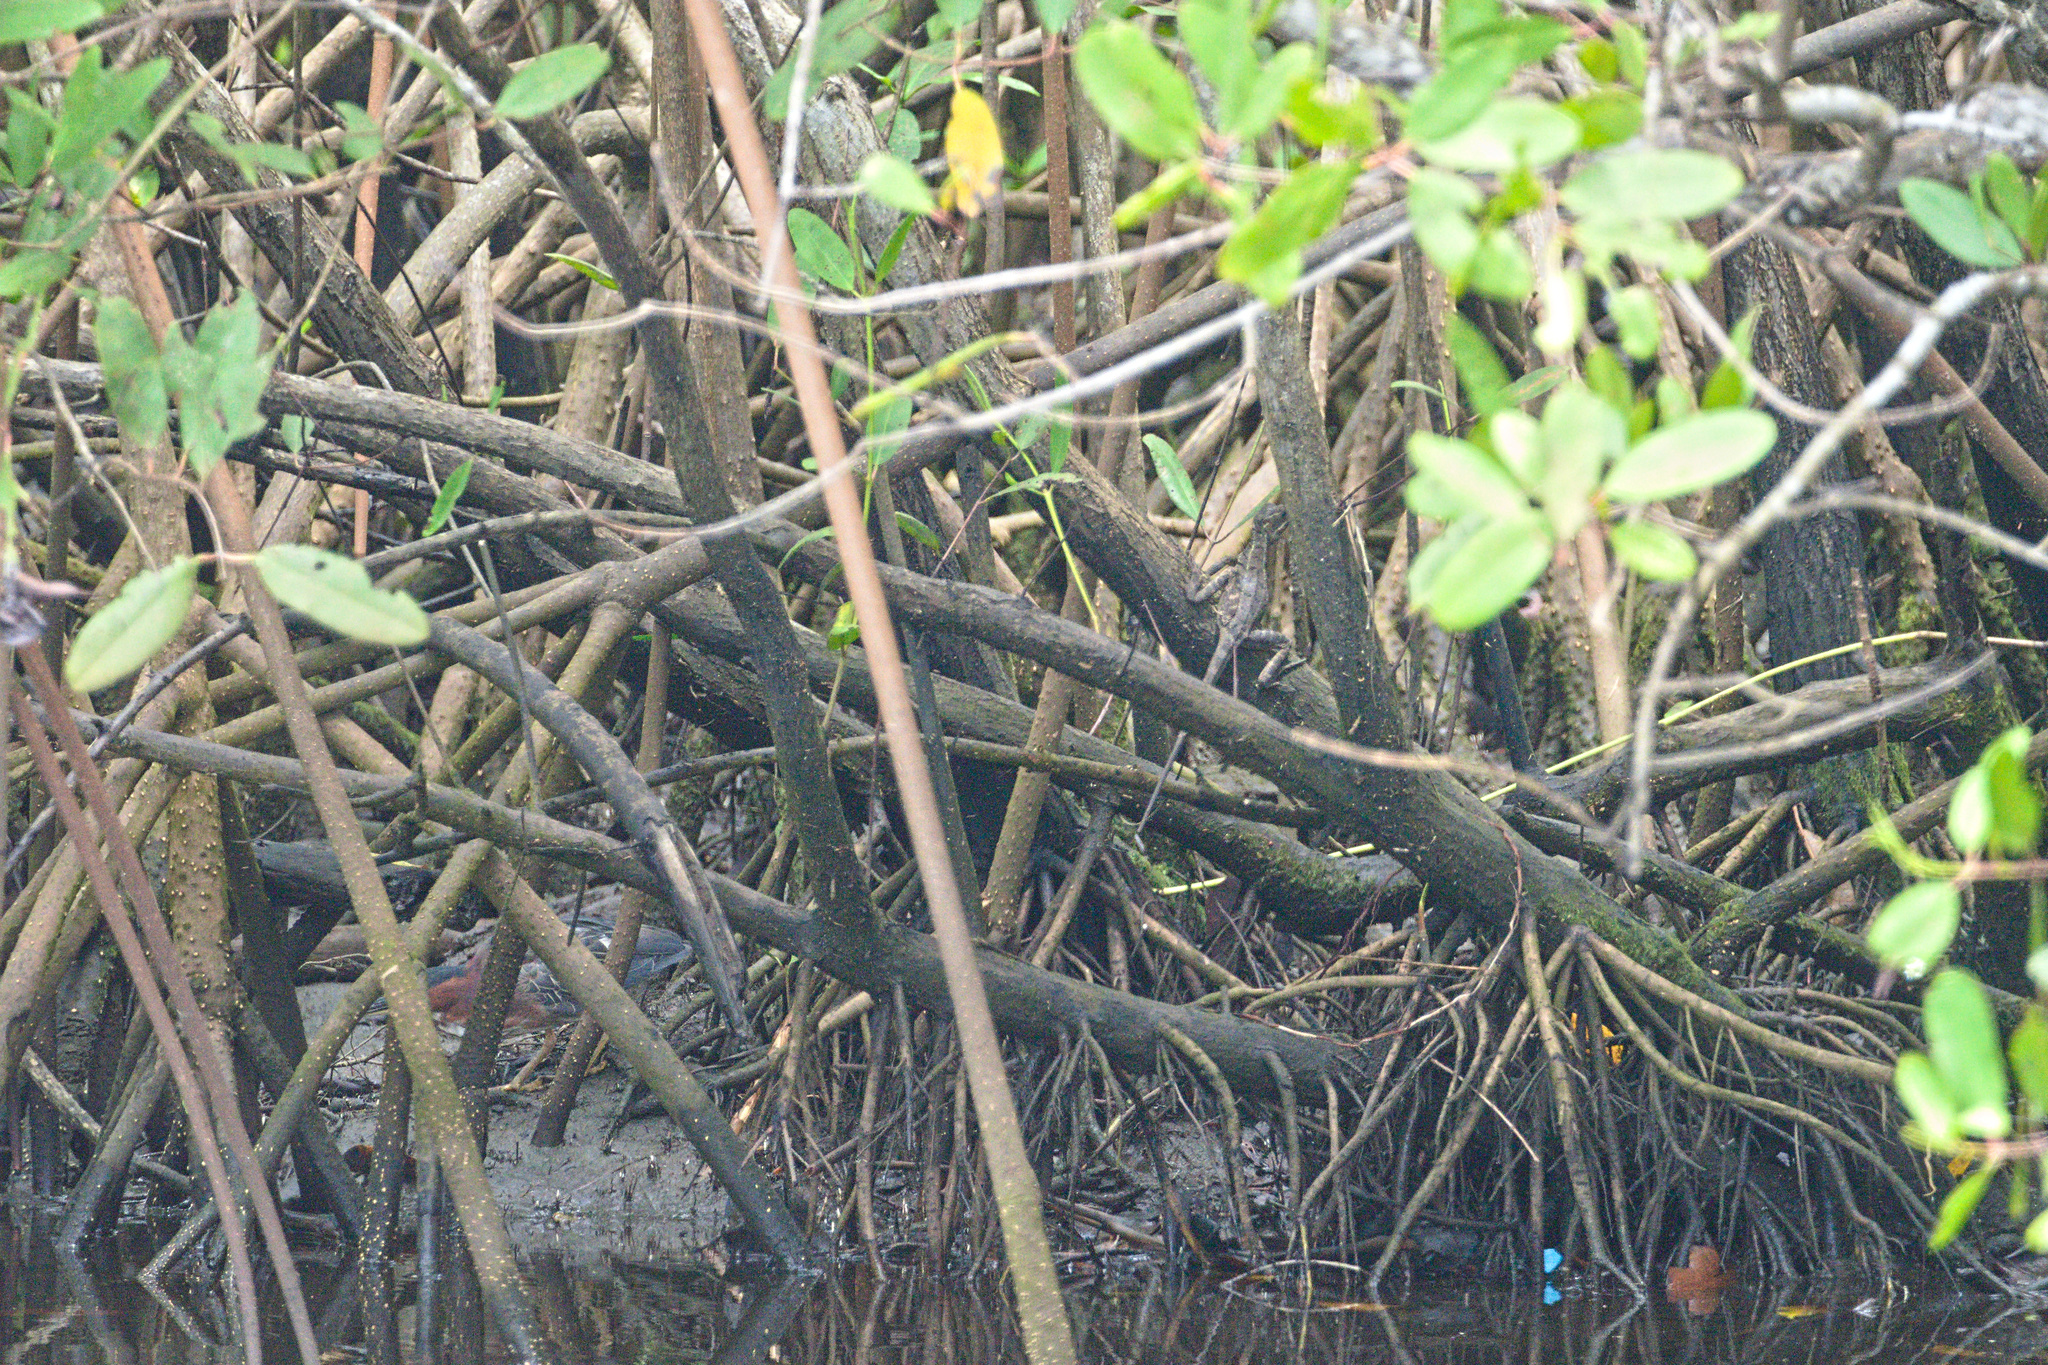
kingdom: Animalia
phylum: Chordata
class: Aves
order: Pelecaniformes
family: Ardeidae
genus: Butorides
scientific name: Butorides virescens
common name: Green heron
